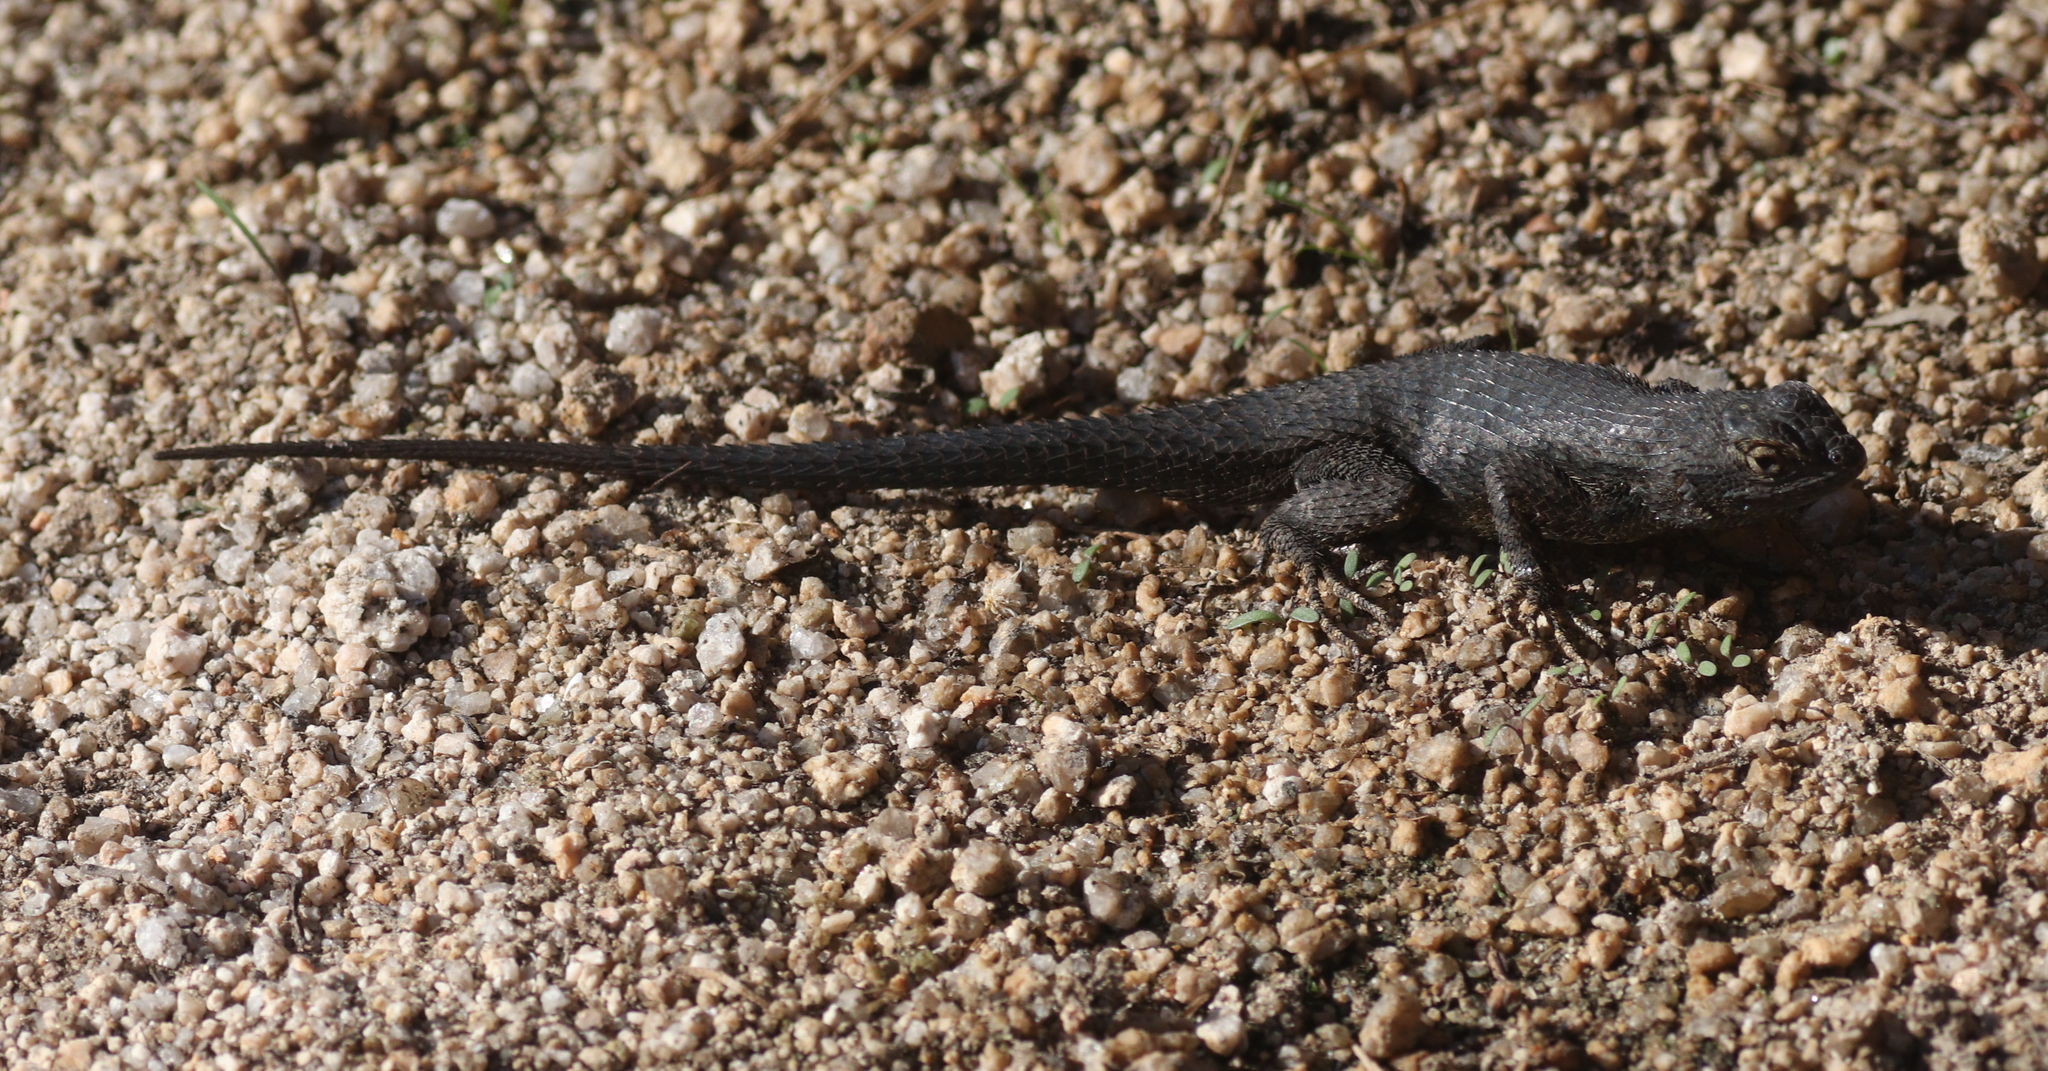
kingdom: Animalia
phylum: Chordata
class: Squamata
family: Phrynosomatidae
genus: Sceloporus
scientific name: Sceloporus occidentalis
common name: Western fence lizard
